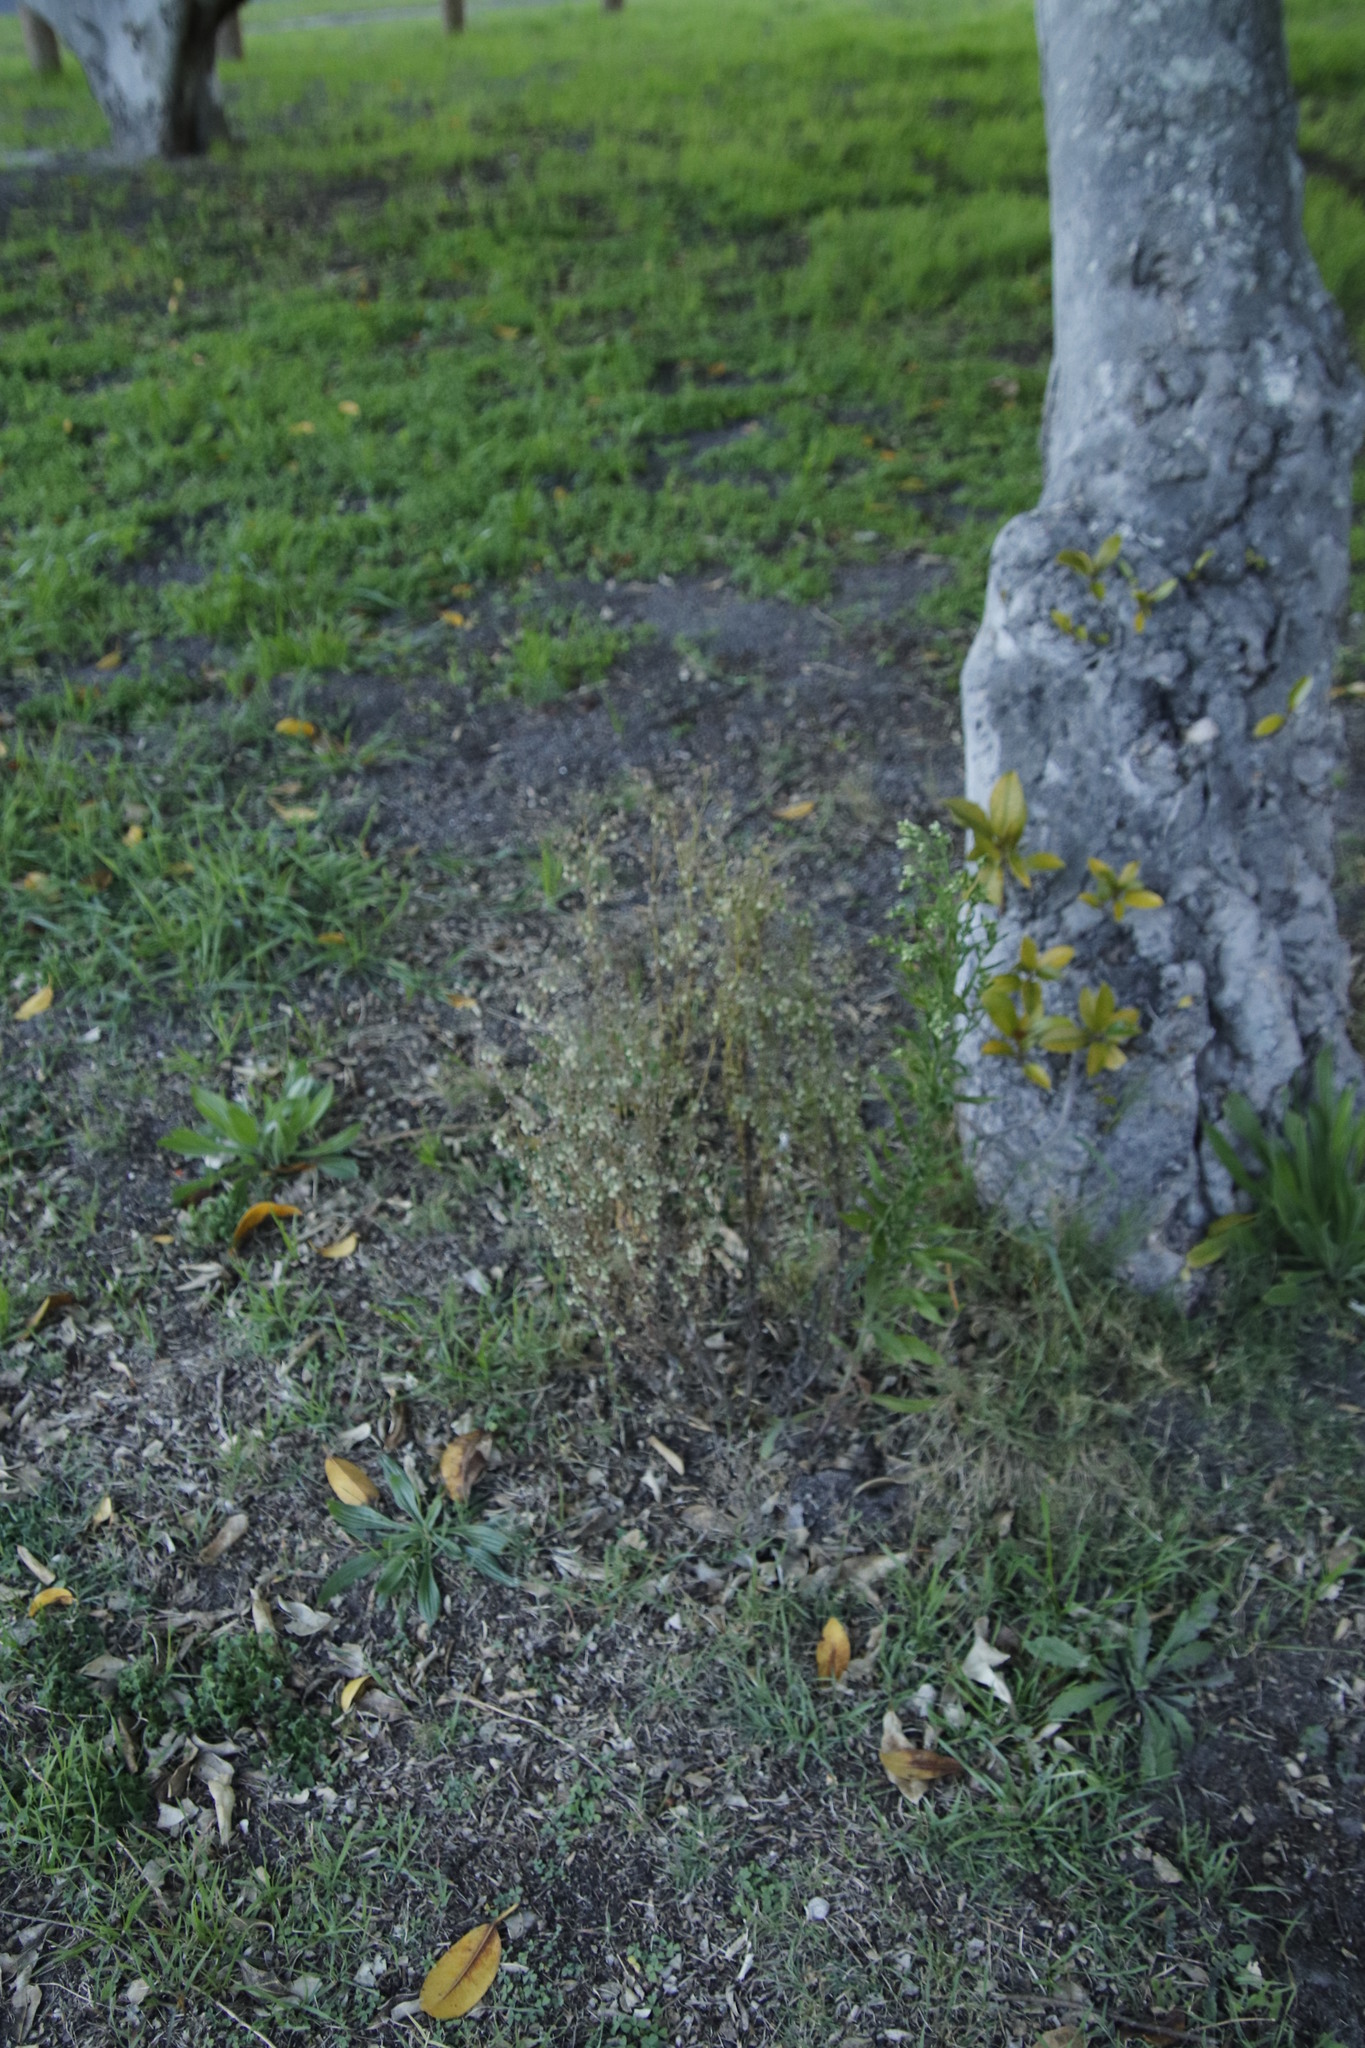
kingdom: Plantae
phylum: Tracheophyta
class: Magnoliopsida
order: Asterales
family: Asteraceae
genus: Erigeron
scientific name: Erigeron sumatrensis
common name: Daisy
